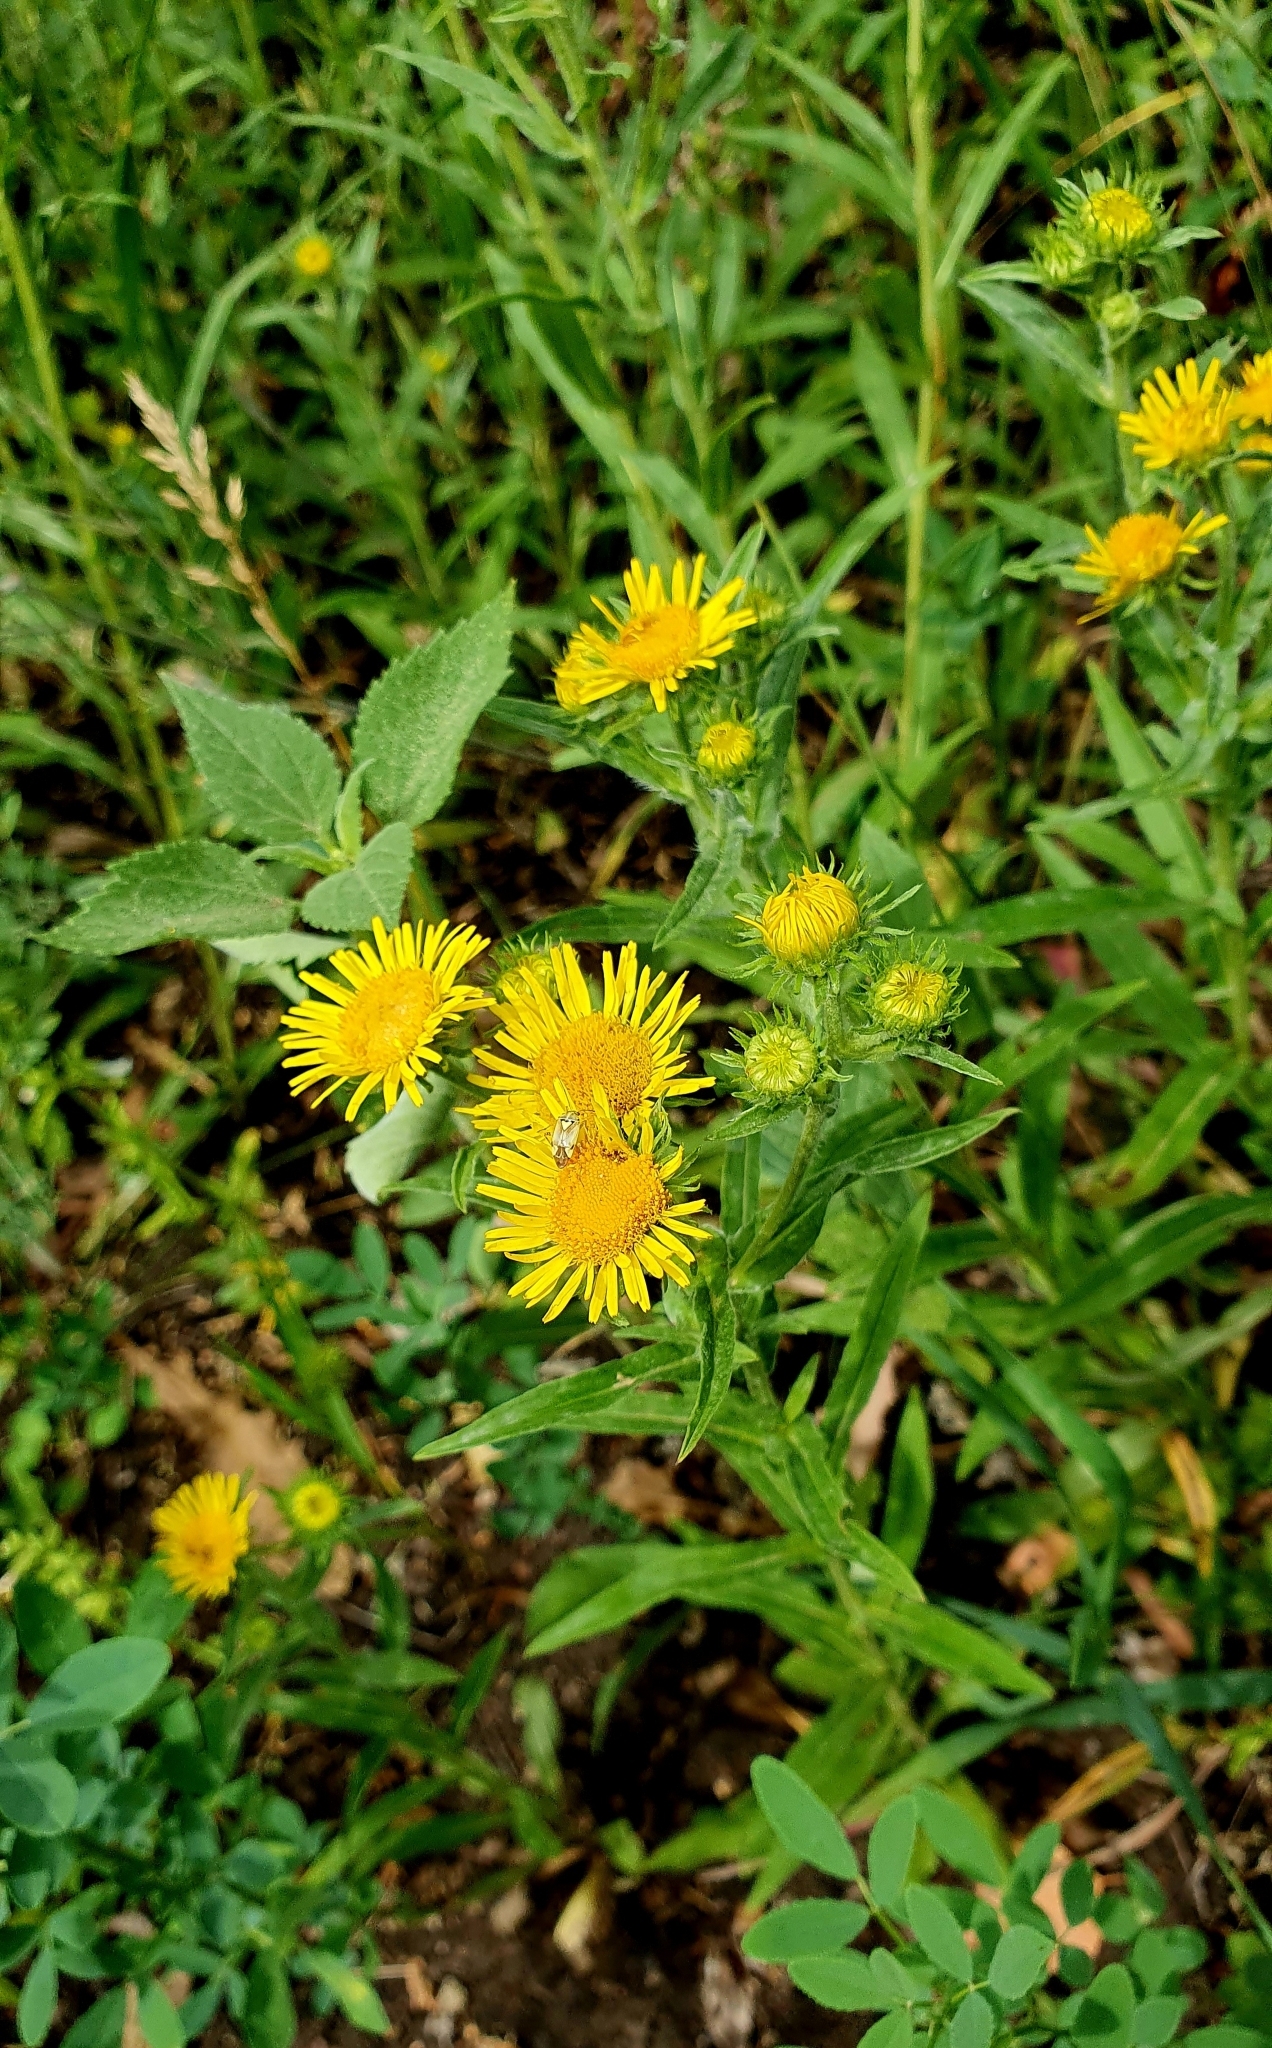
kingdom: Plantae
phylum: Tracheophyta
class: Magnoliopsida
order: Asterales
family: Asteraceae
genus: Pentanema
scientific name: Pentanema britannicum
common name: British elecampane
